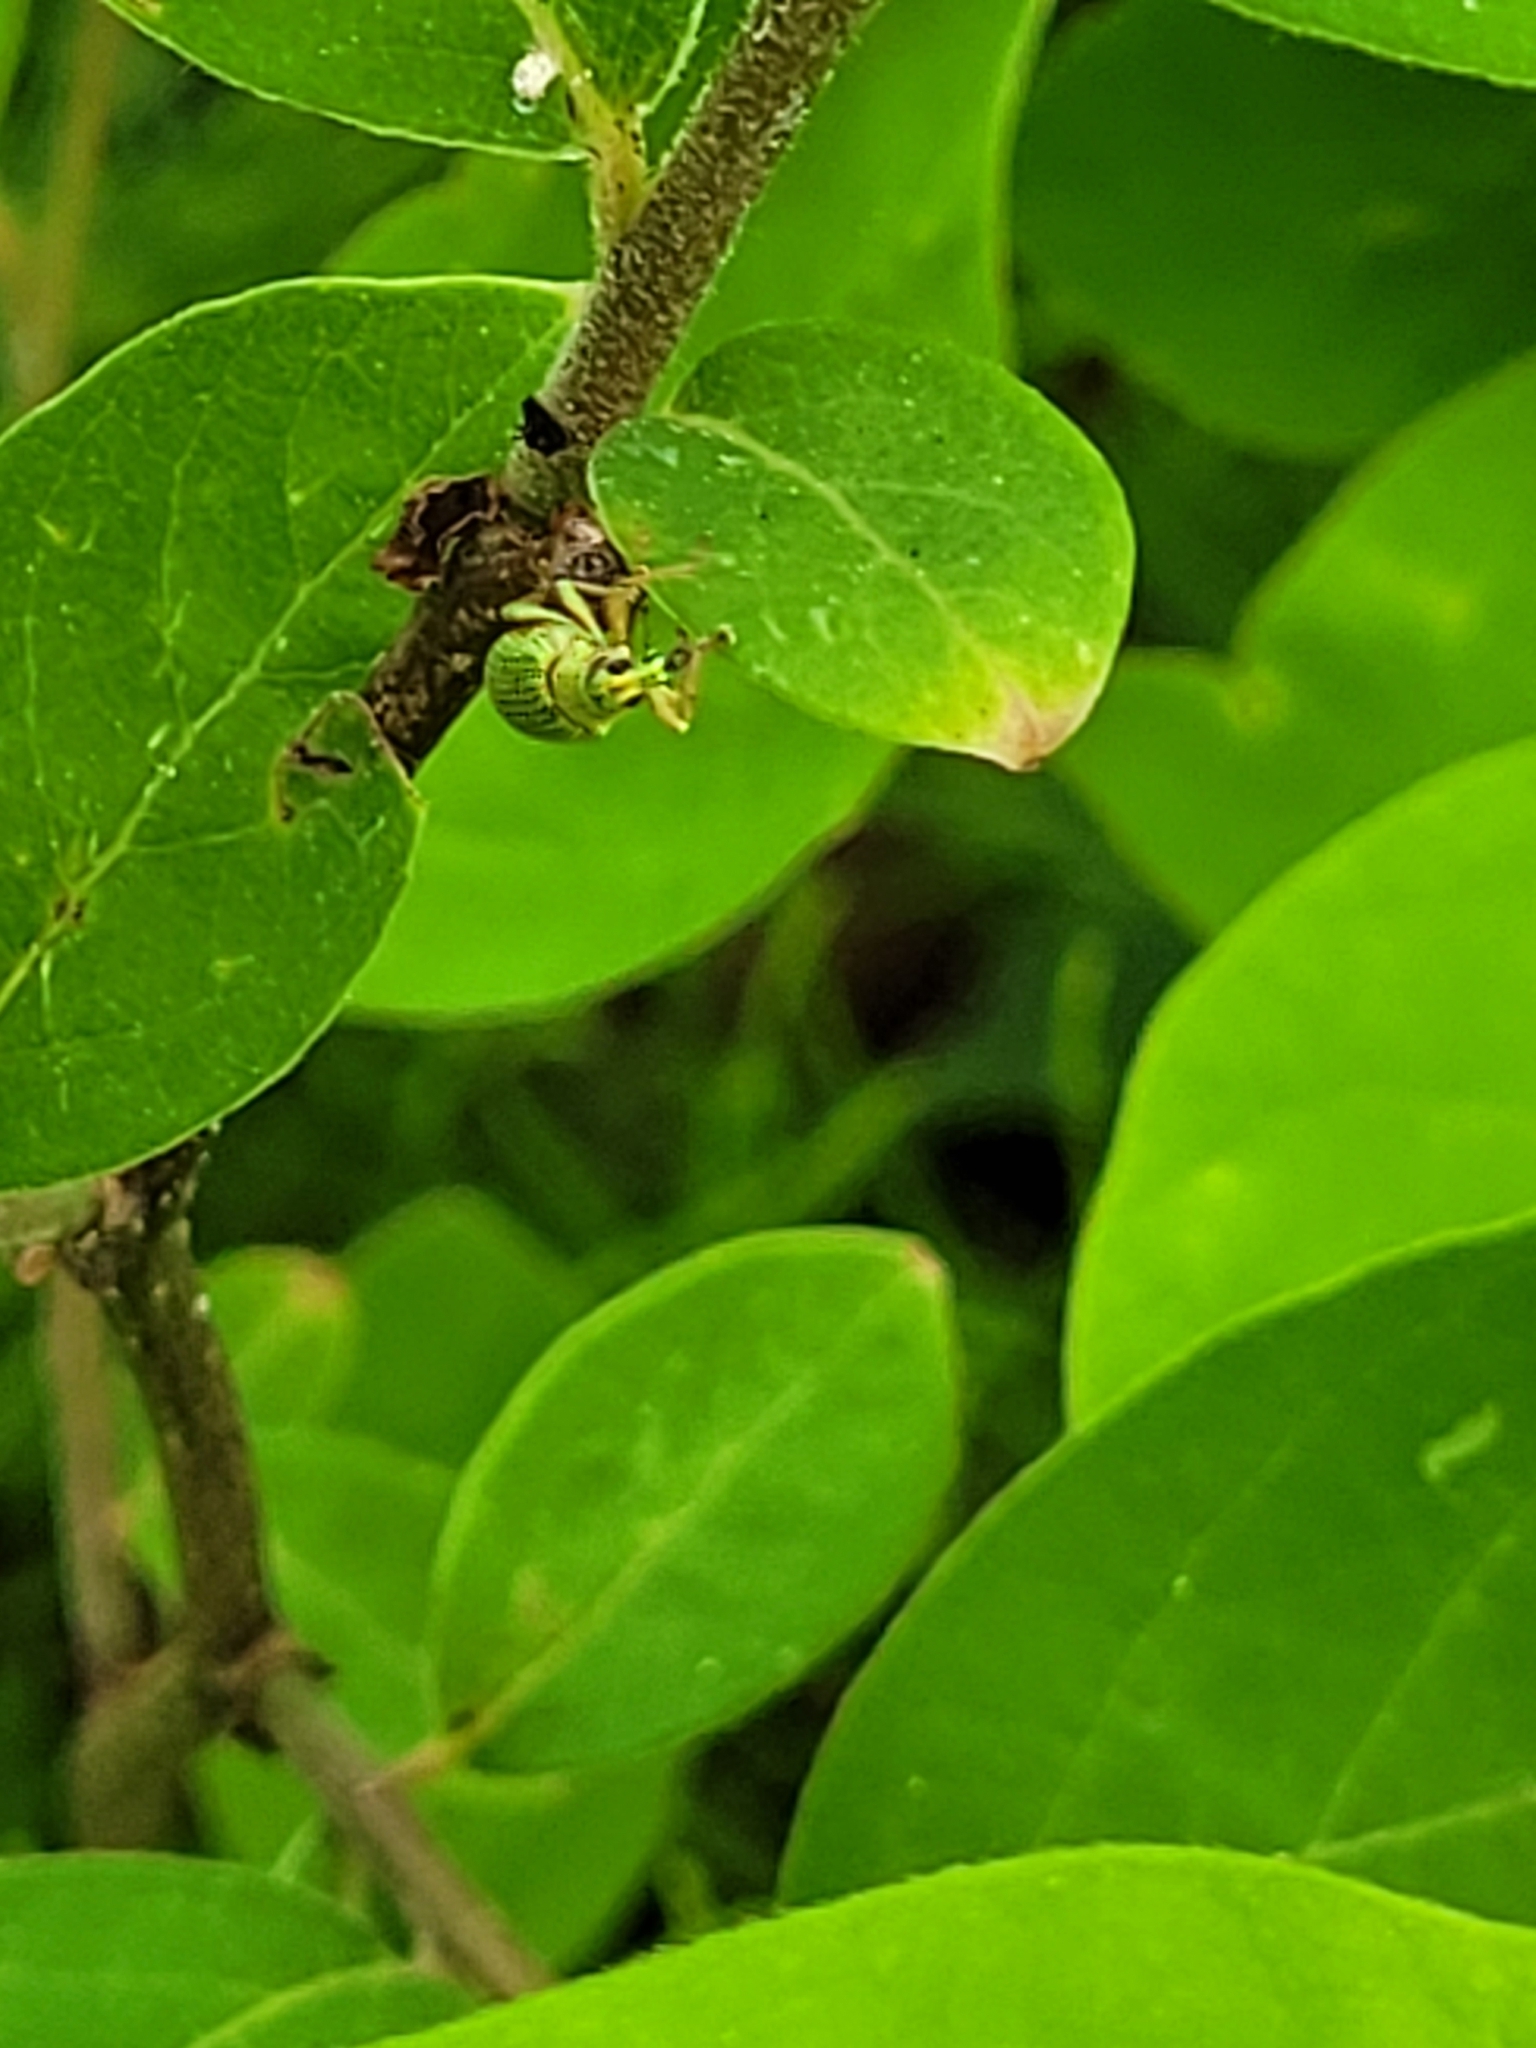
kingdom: Animalia
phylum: Arthropoda
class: Insecta
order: Coleoptera
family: Curculionidae
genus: Polydrusus
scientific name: Polydrusus formosus
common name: Weevil
